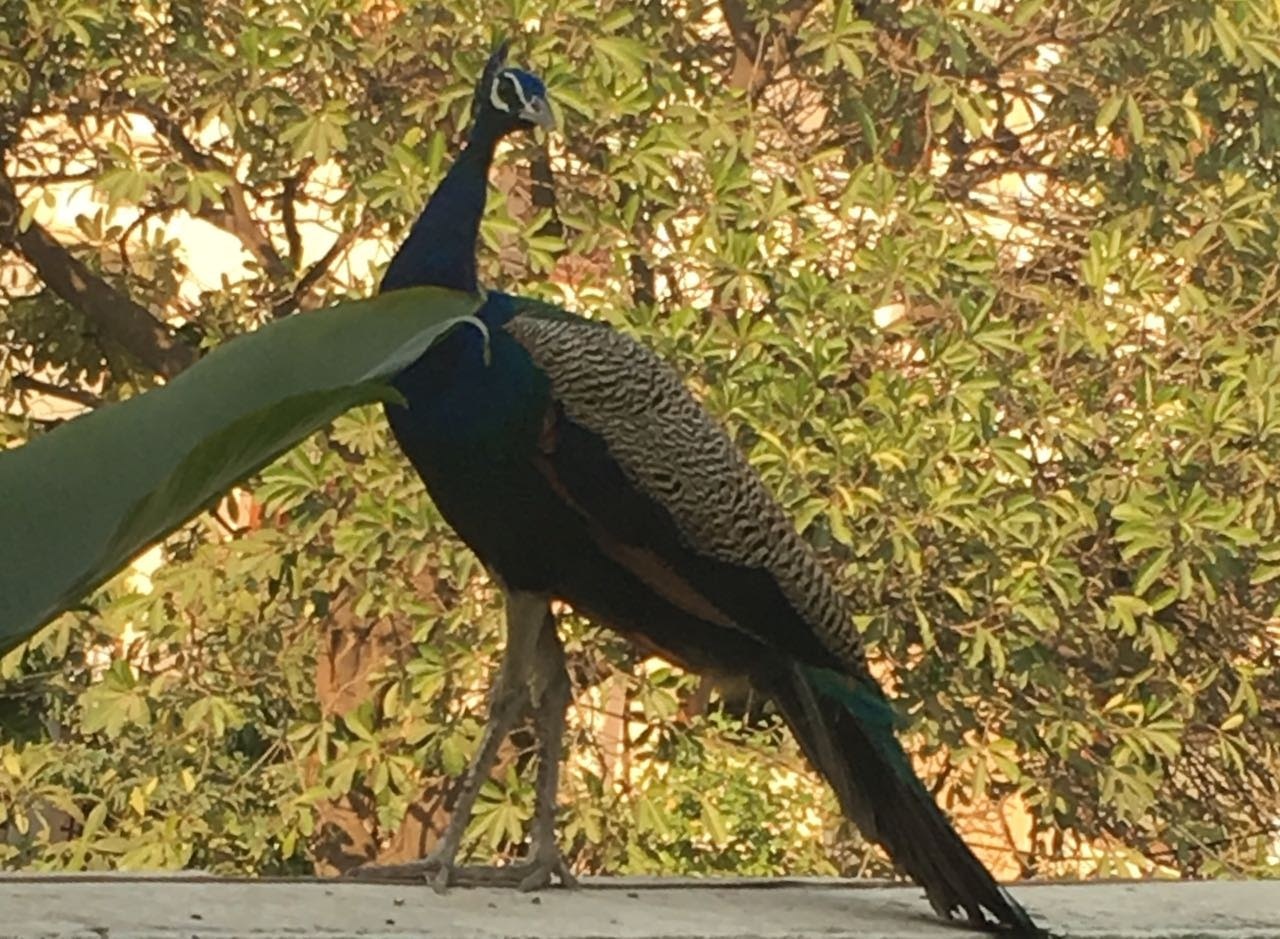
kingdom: Animalia
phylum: Chordata
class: Aves
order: Galliformes
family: Phasianidae
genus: Pavo
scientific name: Pavo cristatus
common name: Indian peafowl
